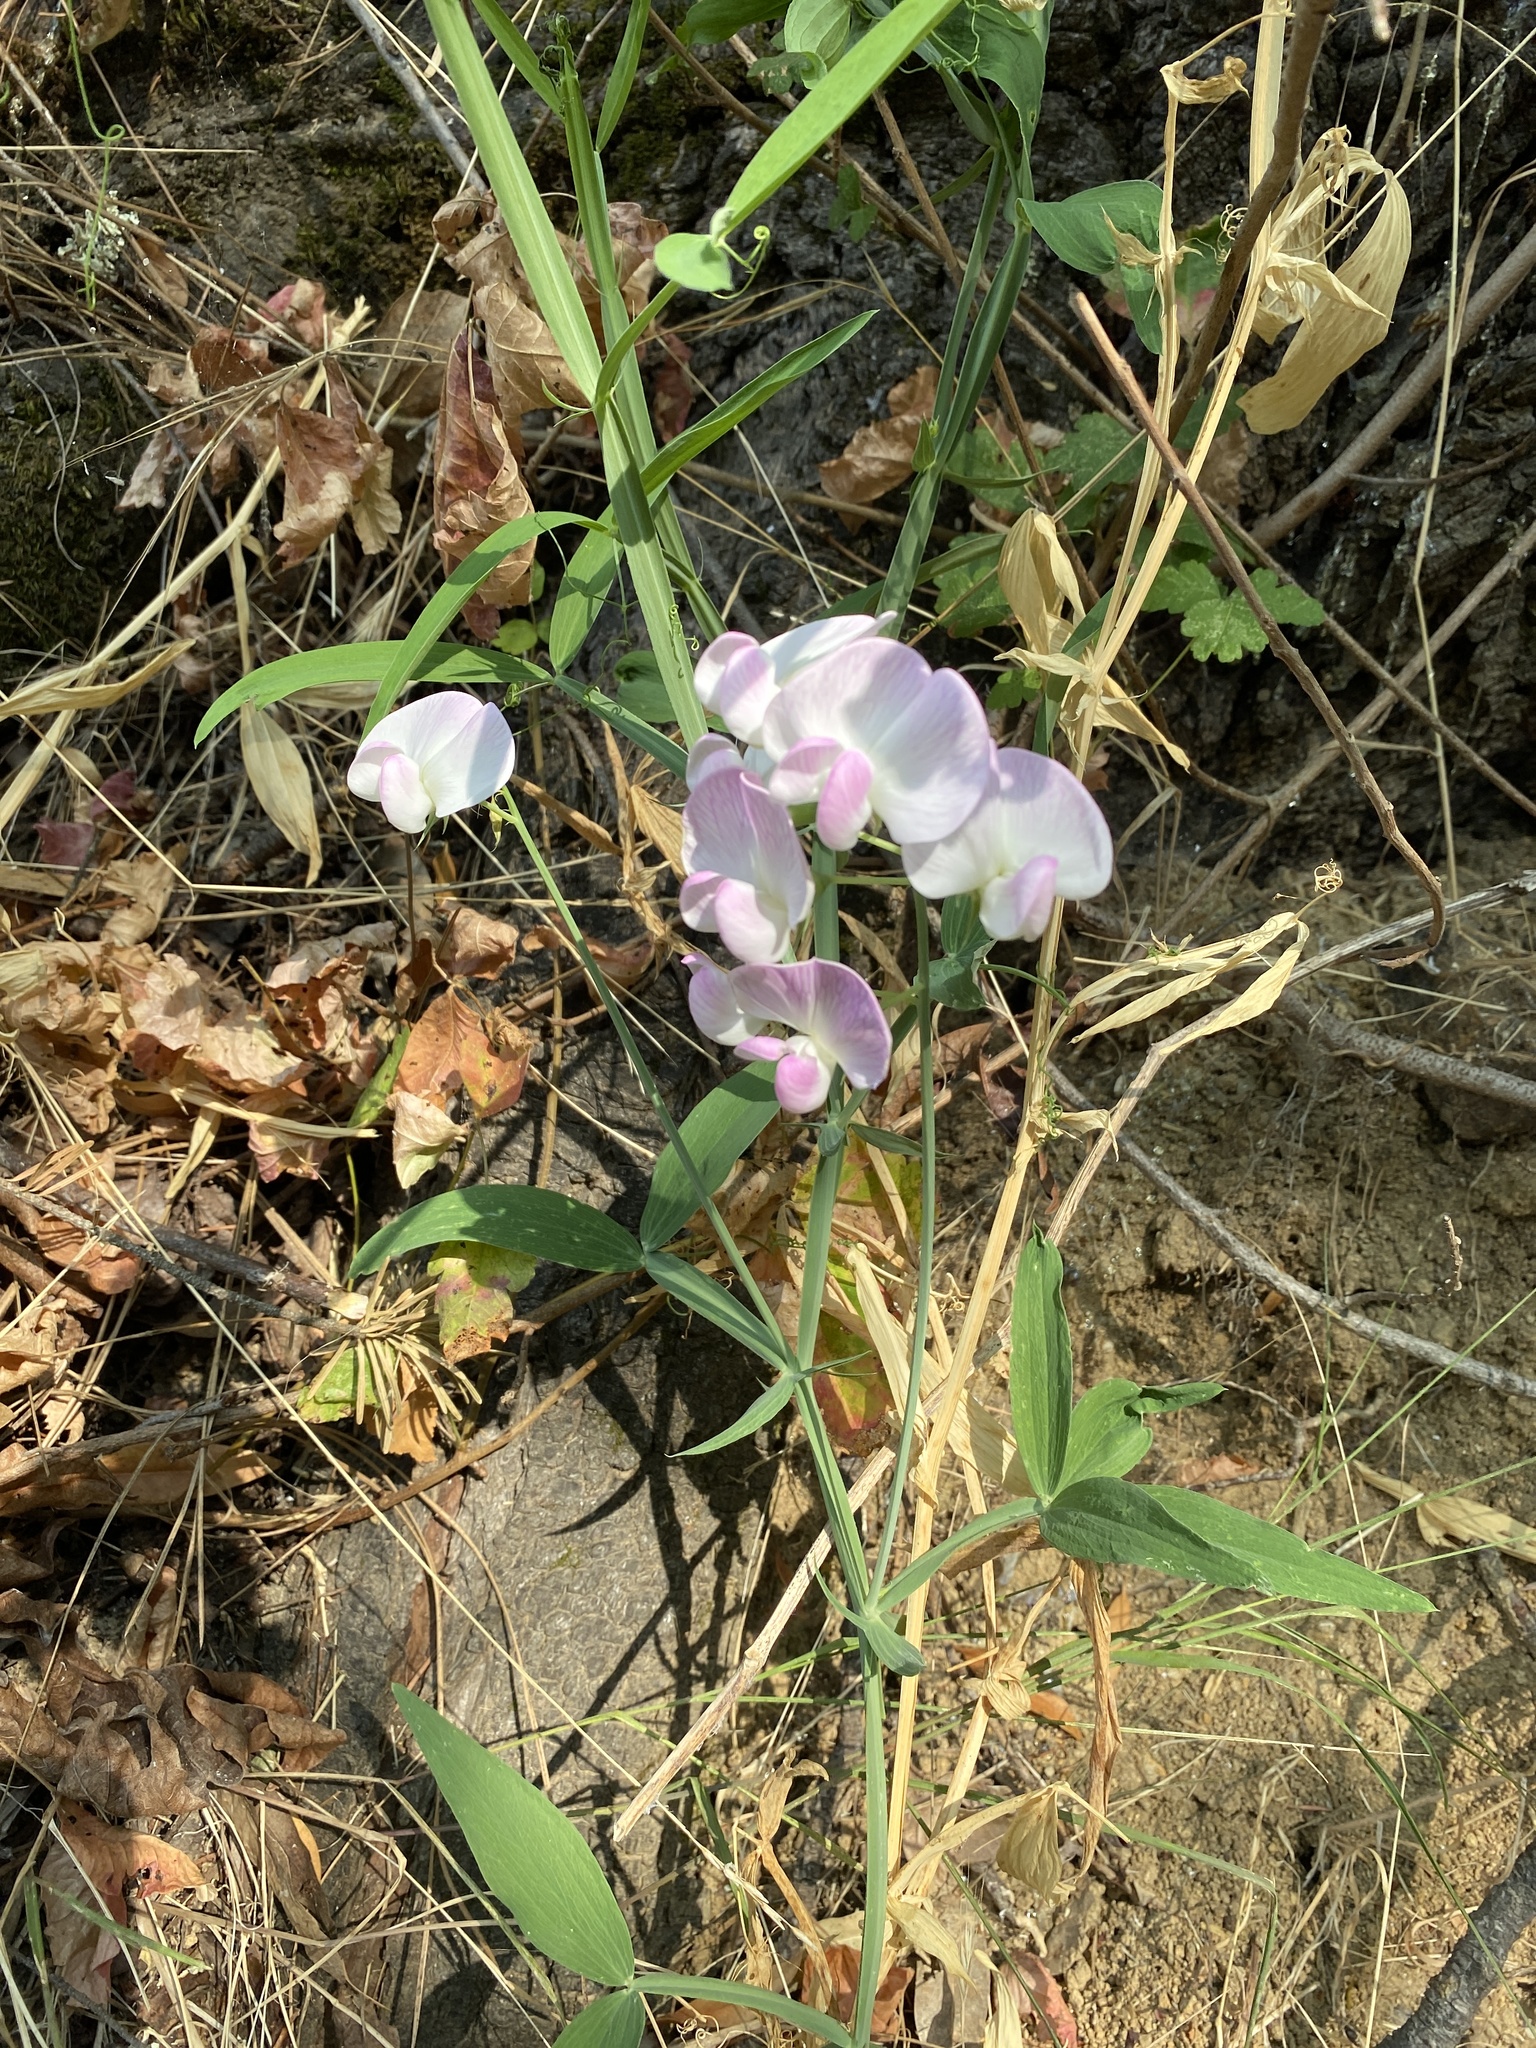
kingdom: Plantae
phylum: Tracheophyta
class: Magnoliopsida
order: Fabales
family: Fabaceae
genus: Lathyrus
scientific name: Lathyrus latifolius
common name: Perennial pea
